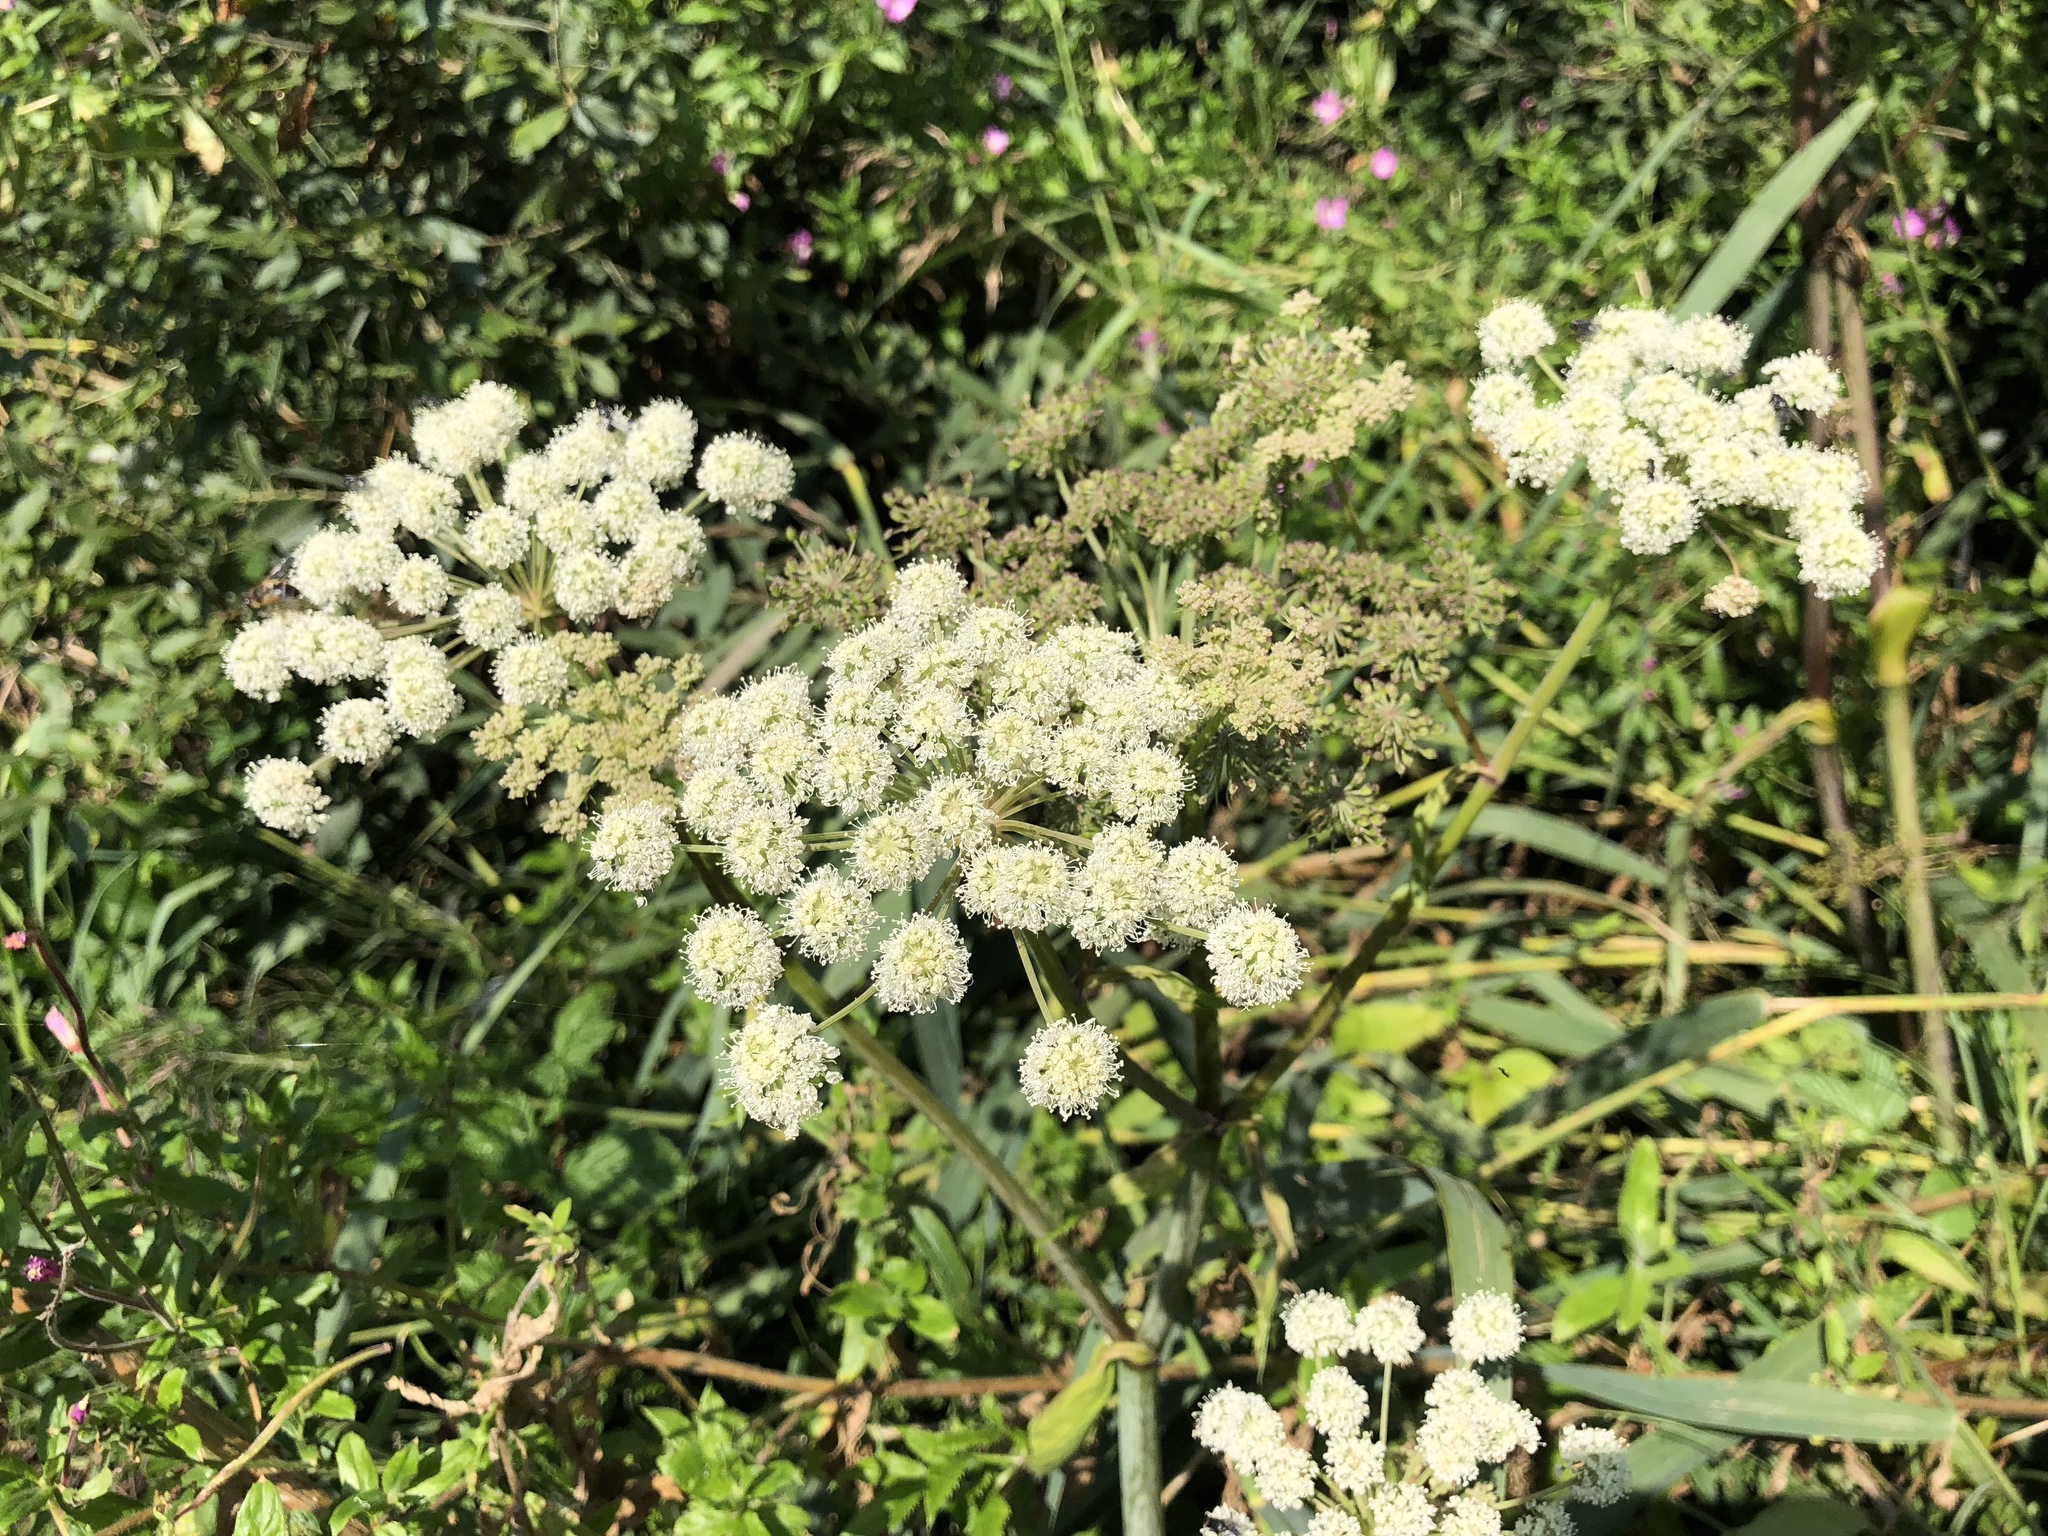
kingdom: Plantae
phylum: Tracheophyta
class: Magnoliopsida
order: Apiales
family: Apiaceae
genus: Angelica
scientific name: Angelica sylvestris
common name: Wild angelica
